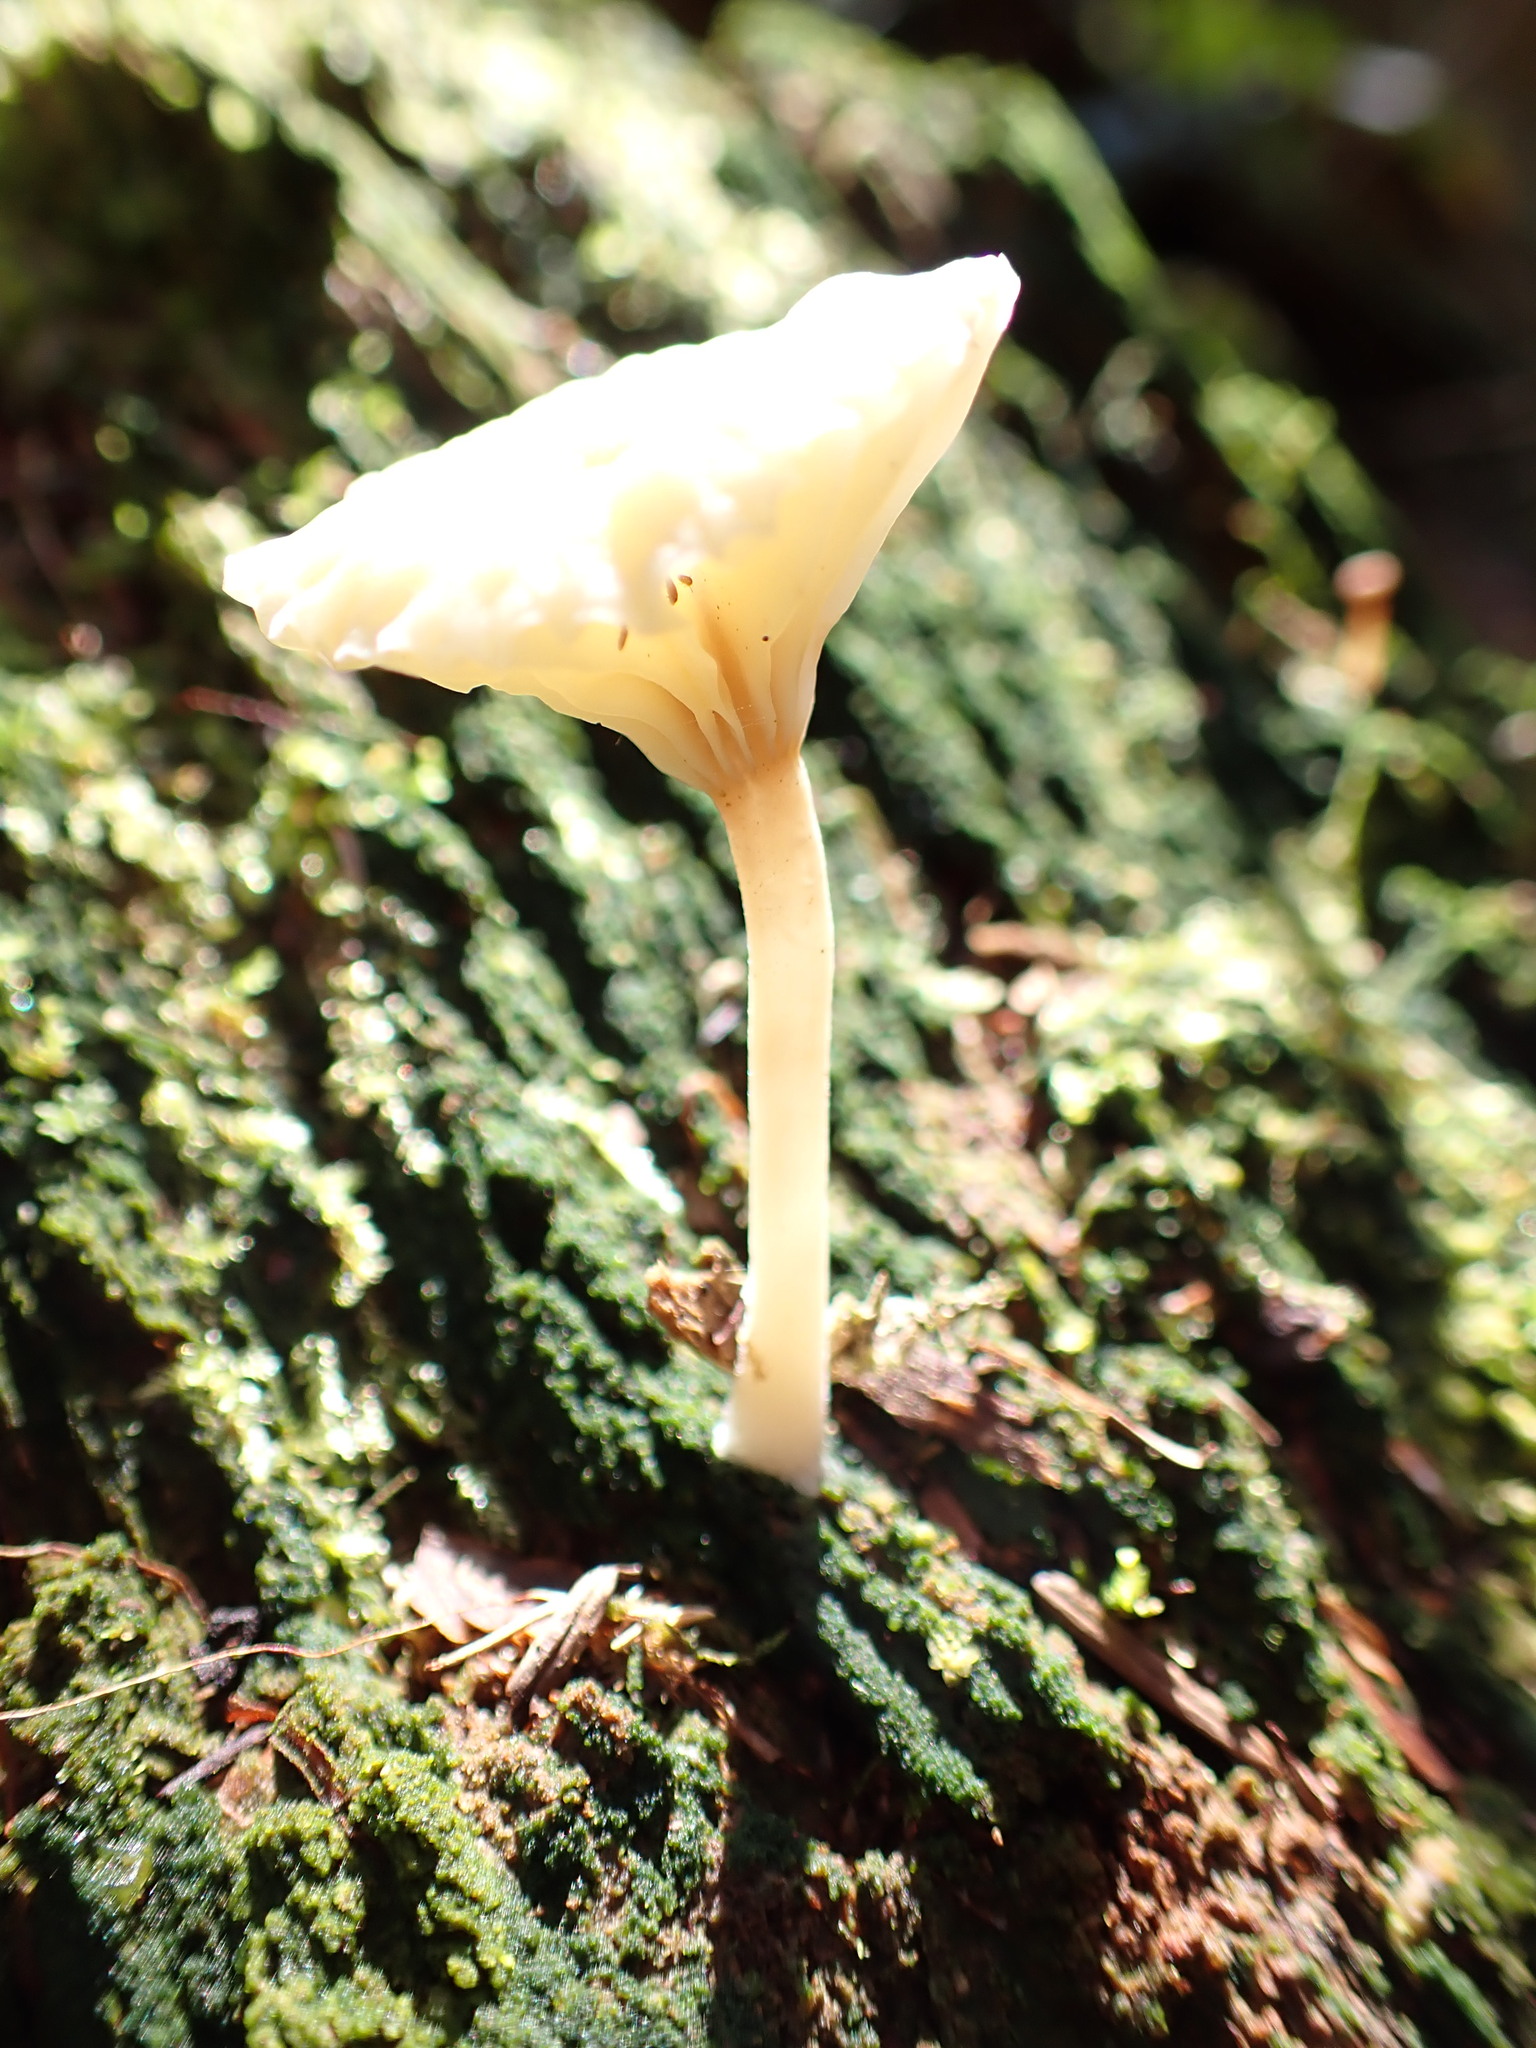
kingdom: Fungi
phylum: Basidiomycota
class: Agaricomycetes
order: Agaricales
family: Hygrophoraceae
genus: Lichenomphalia
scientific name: Lichenomphalia
